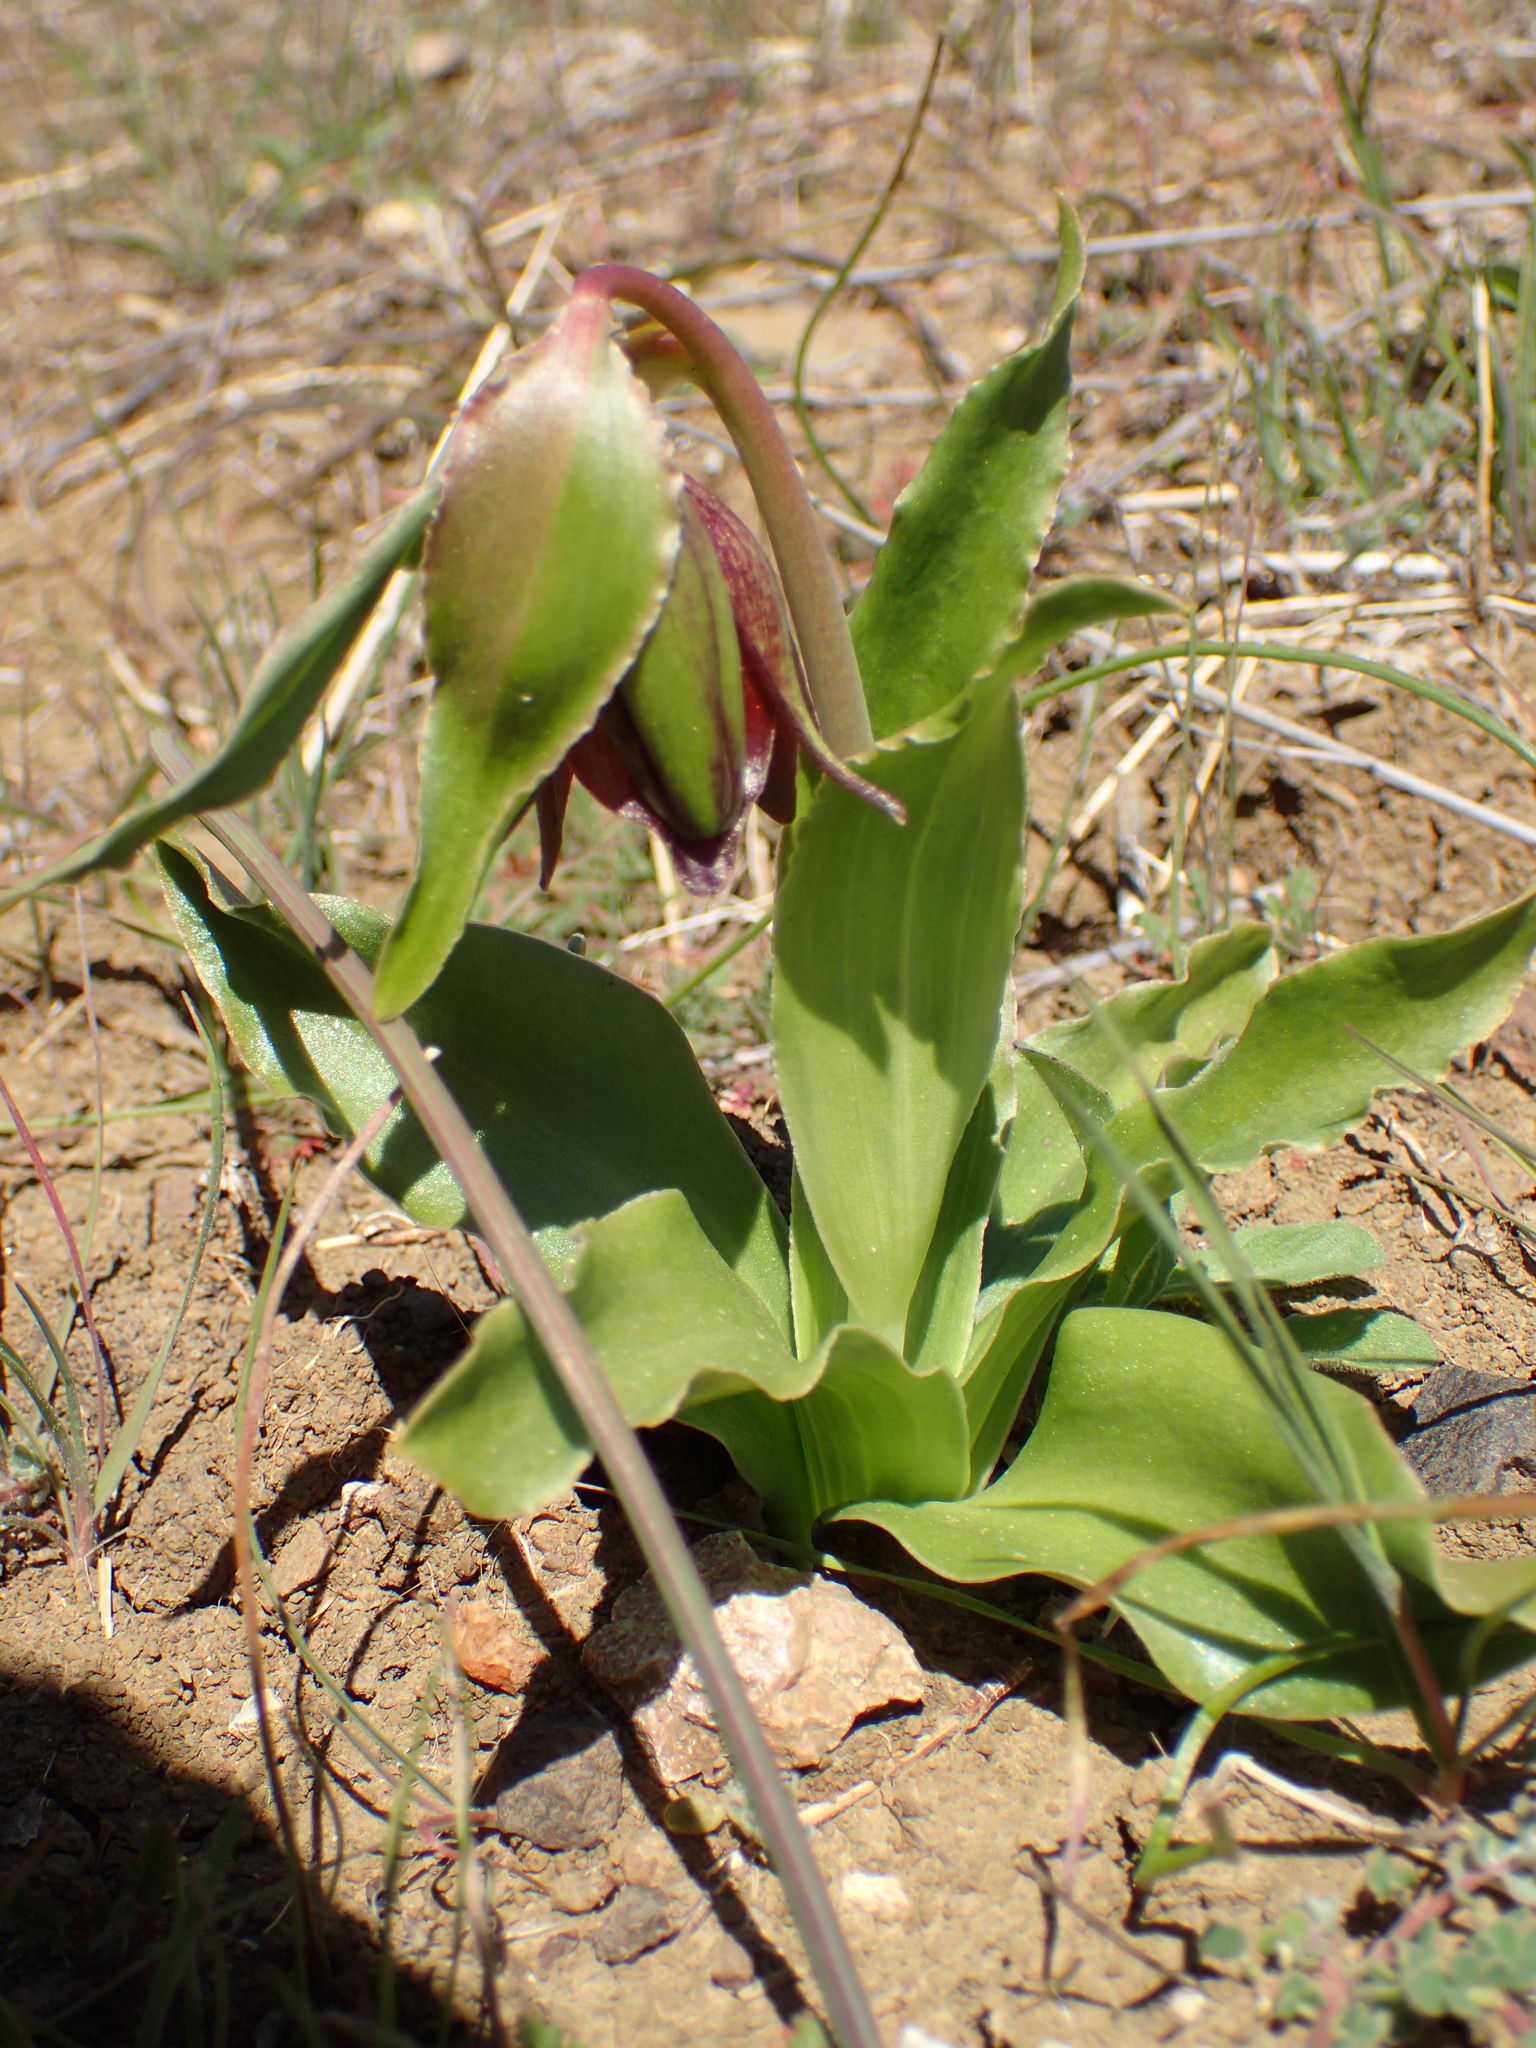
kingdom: Plantae
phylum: Tracheophyta
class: Liliopsida
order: Liliales
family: Liliaceae
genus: Fritillaria
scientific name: Fritillaria biflora
